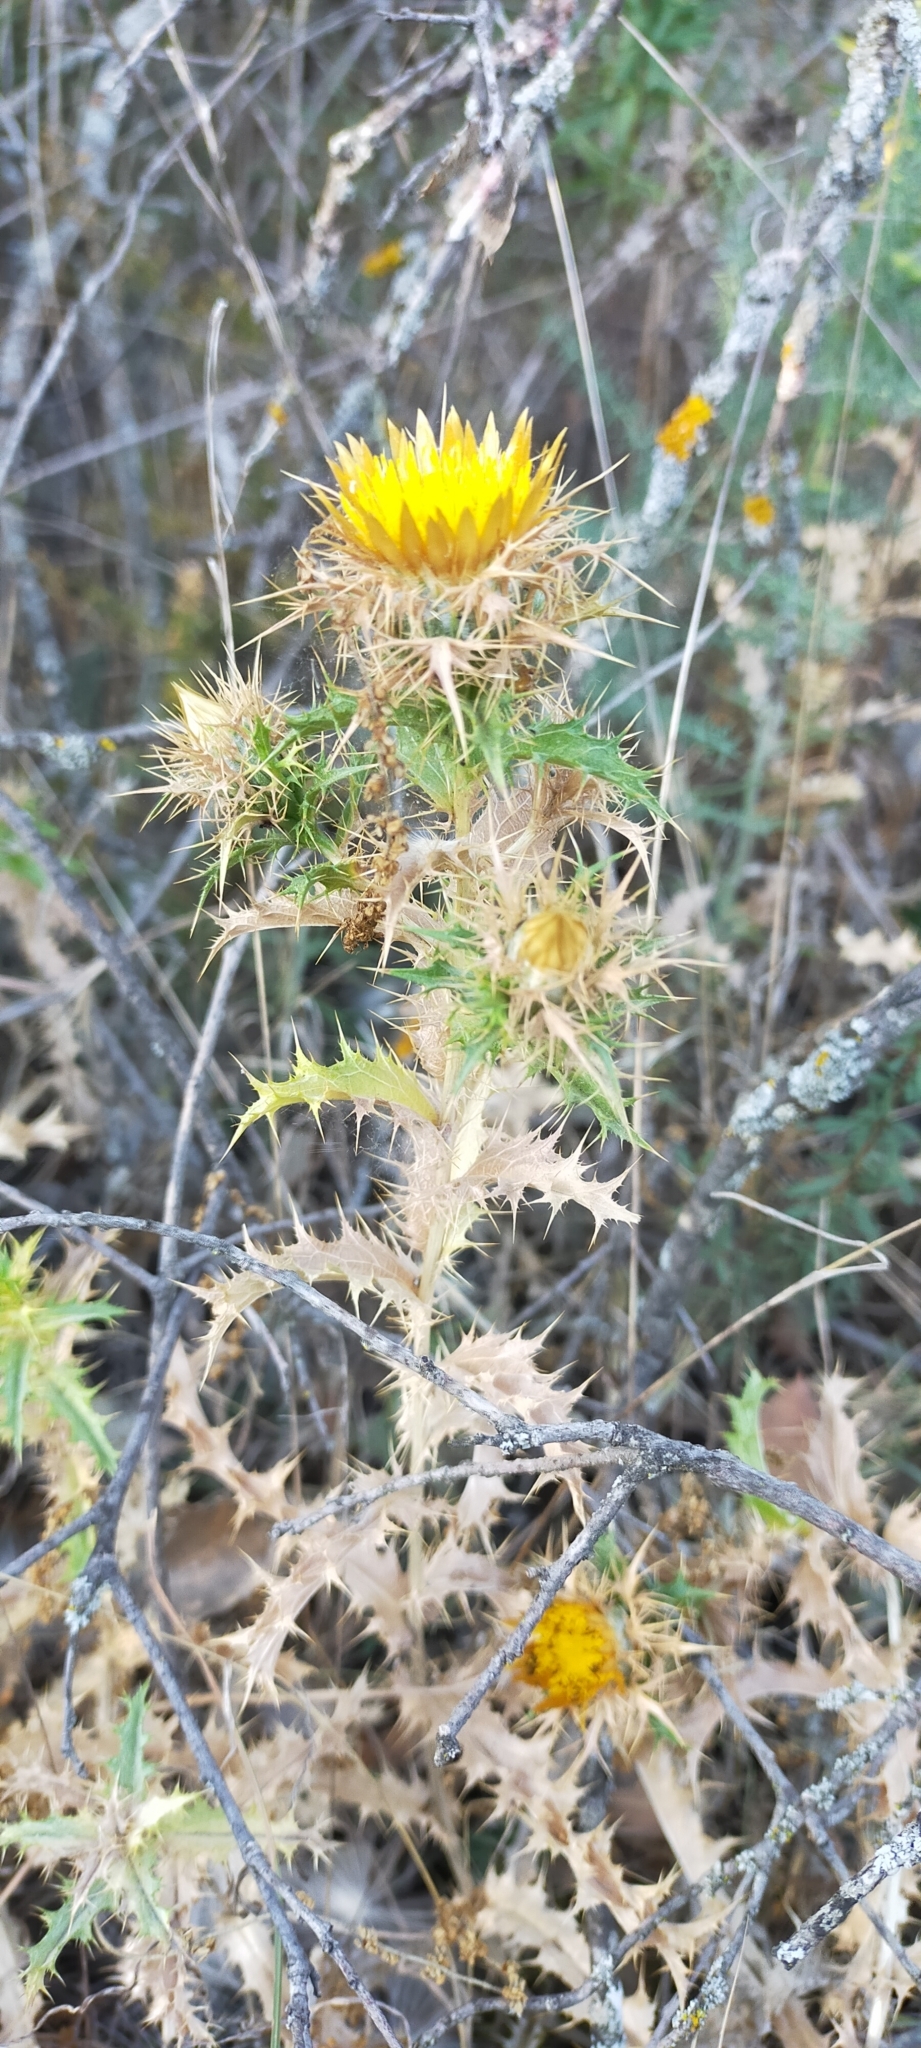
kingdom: Plantae
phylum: Tracheophyta
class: Magnoliopsida
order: Asterales
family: Asteraceae
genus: Carlina
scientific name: Carlina hispanica
